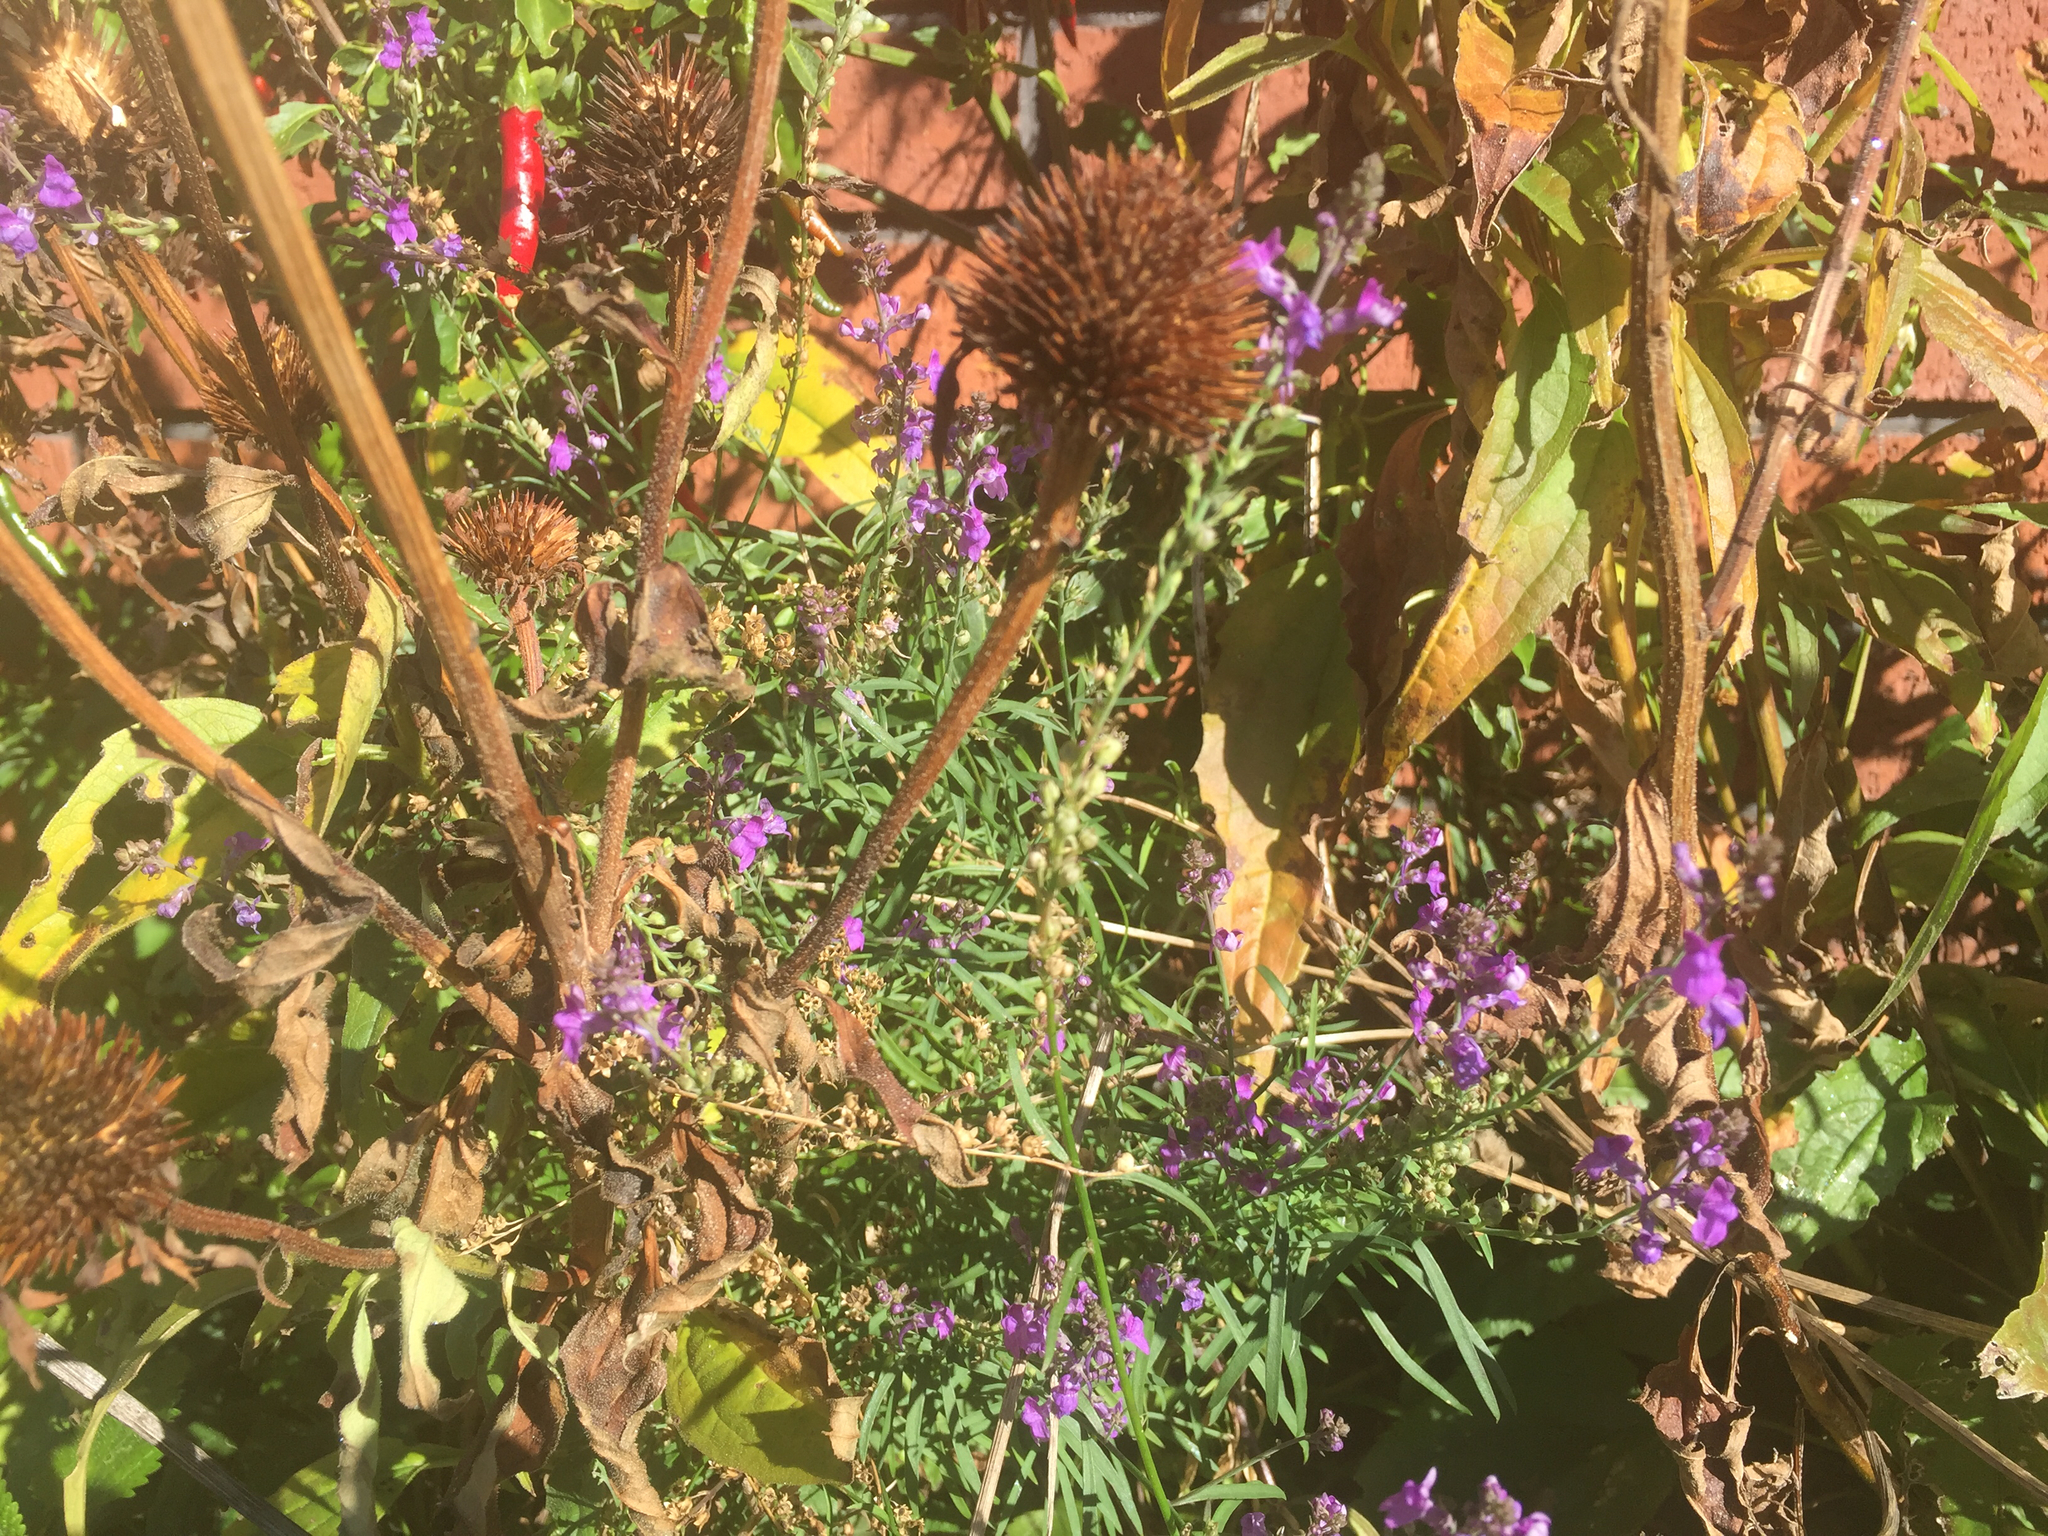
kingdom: Plantae
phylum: Tracheophyta
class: Magnoliopsida
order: Lamiales
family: Plantaginaceae
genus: Linaria
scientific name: Linaria purpurea
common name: Purple toadflax
